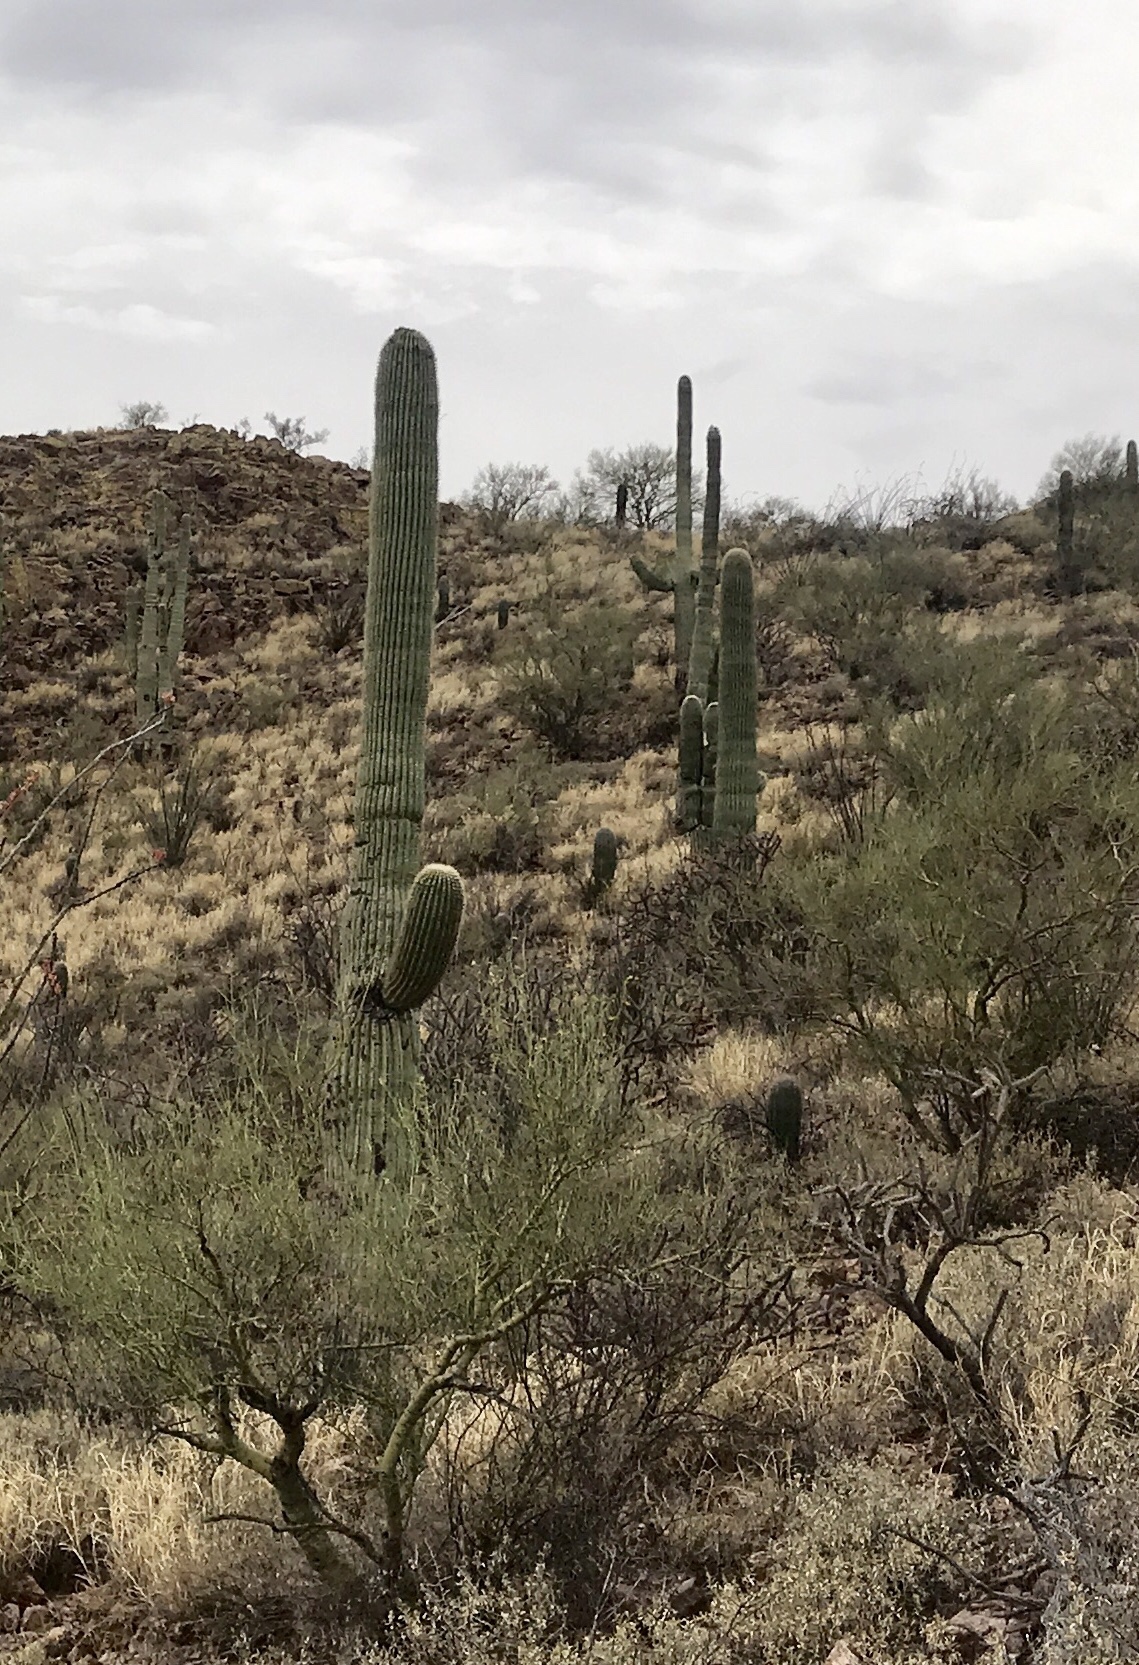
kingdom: Plantae
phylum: Tracheophyta
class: Magnoliopsida
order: Caryophyllales
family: Cactaceae
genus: Carnegiea
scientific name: Carnegiea gigantea
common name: Saguaro
